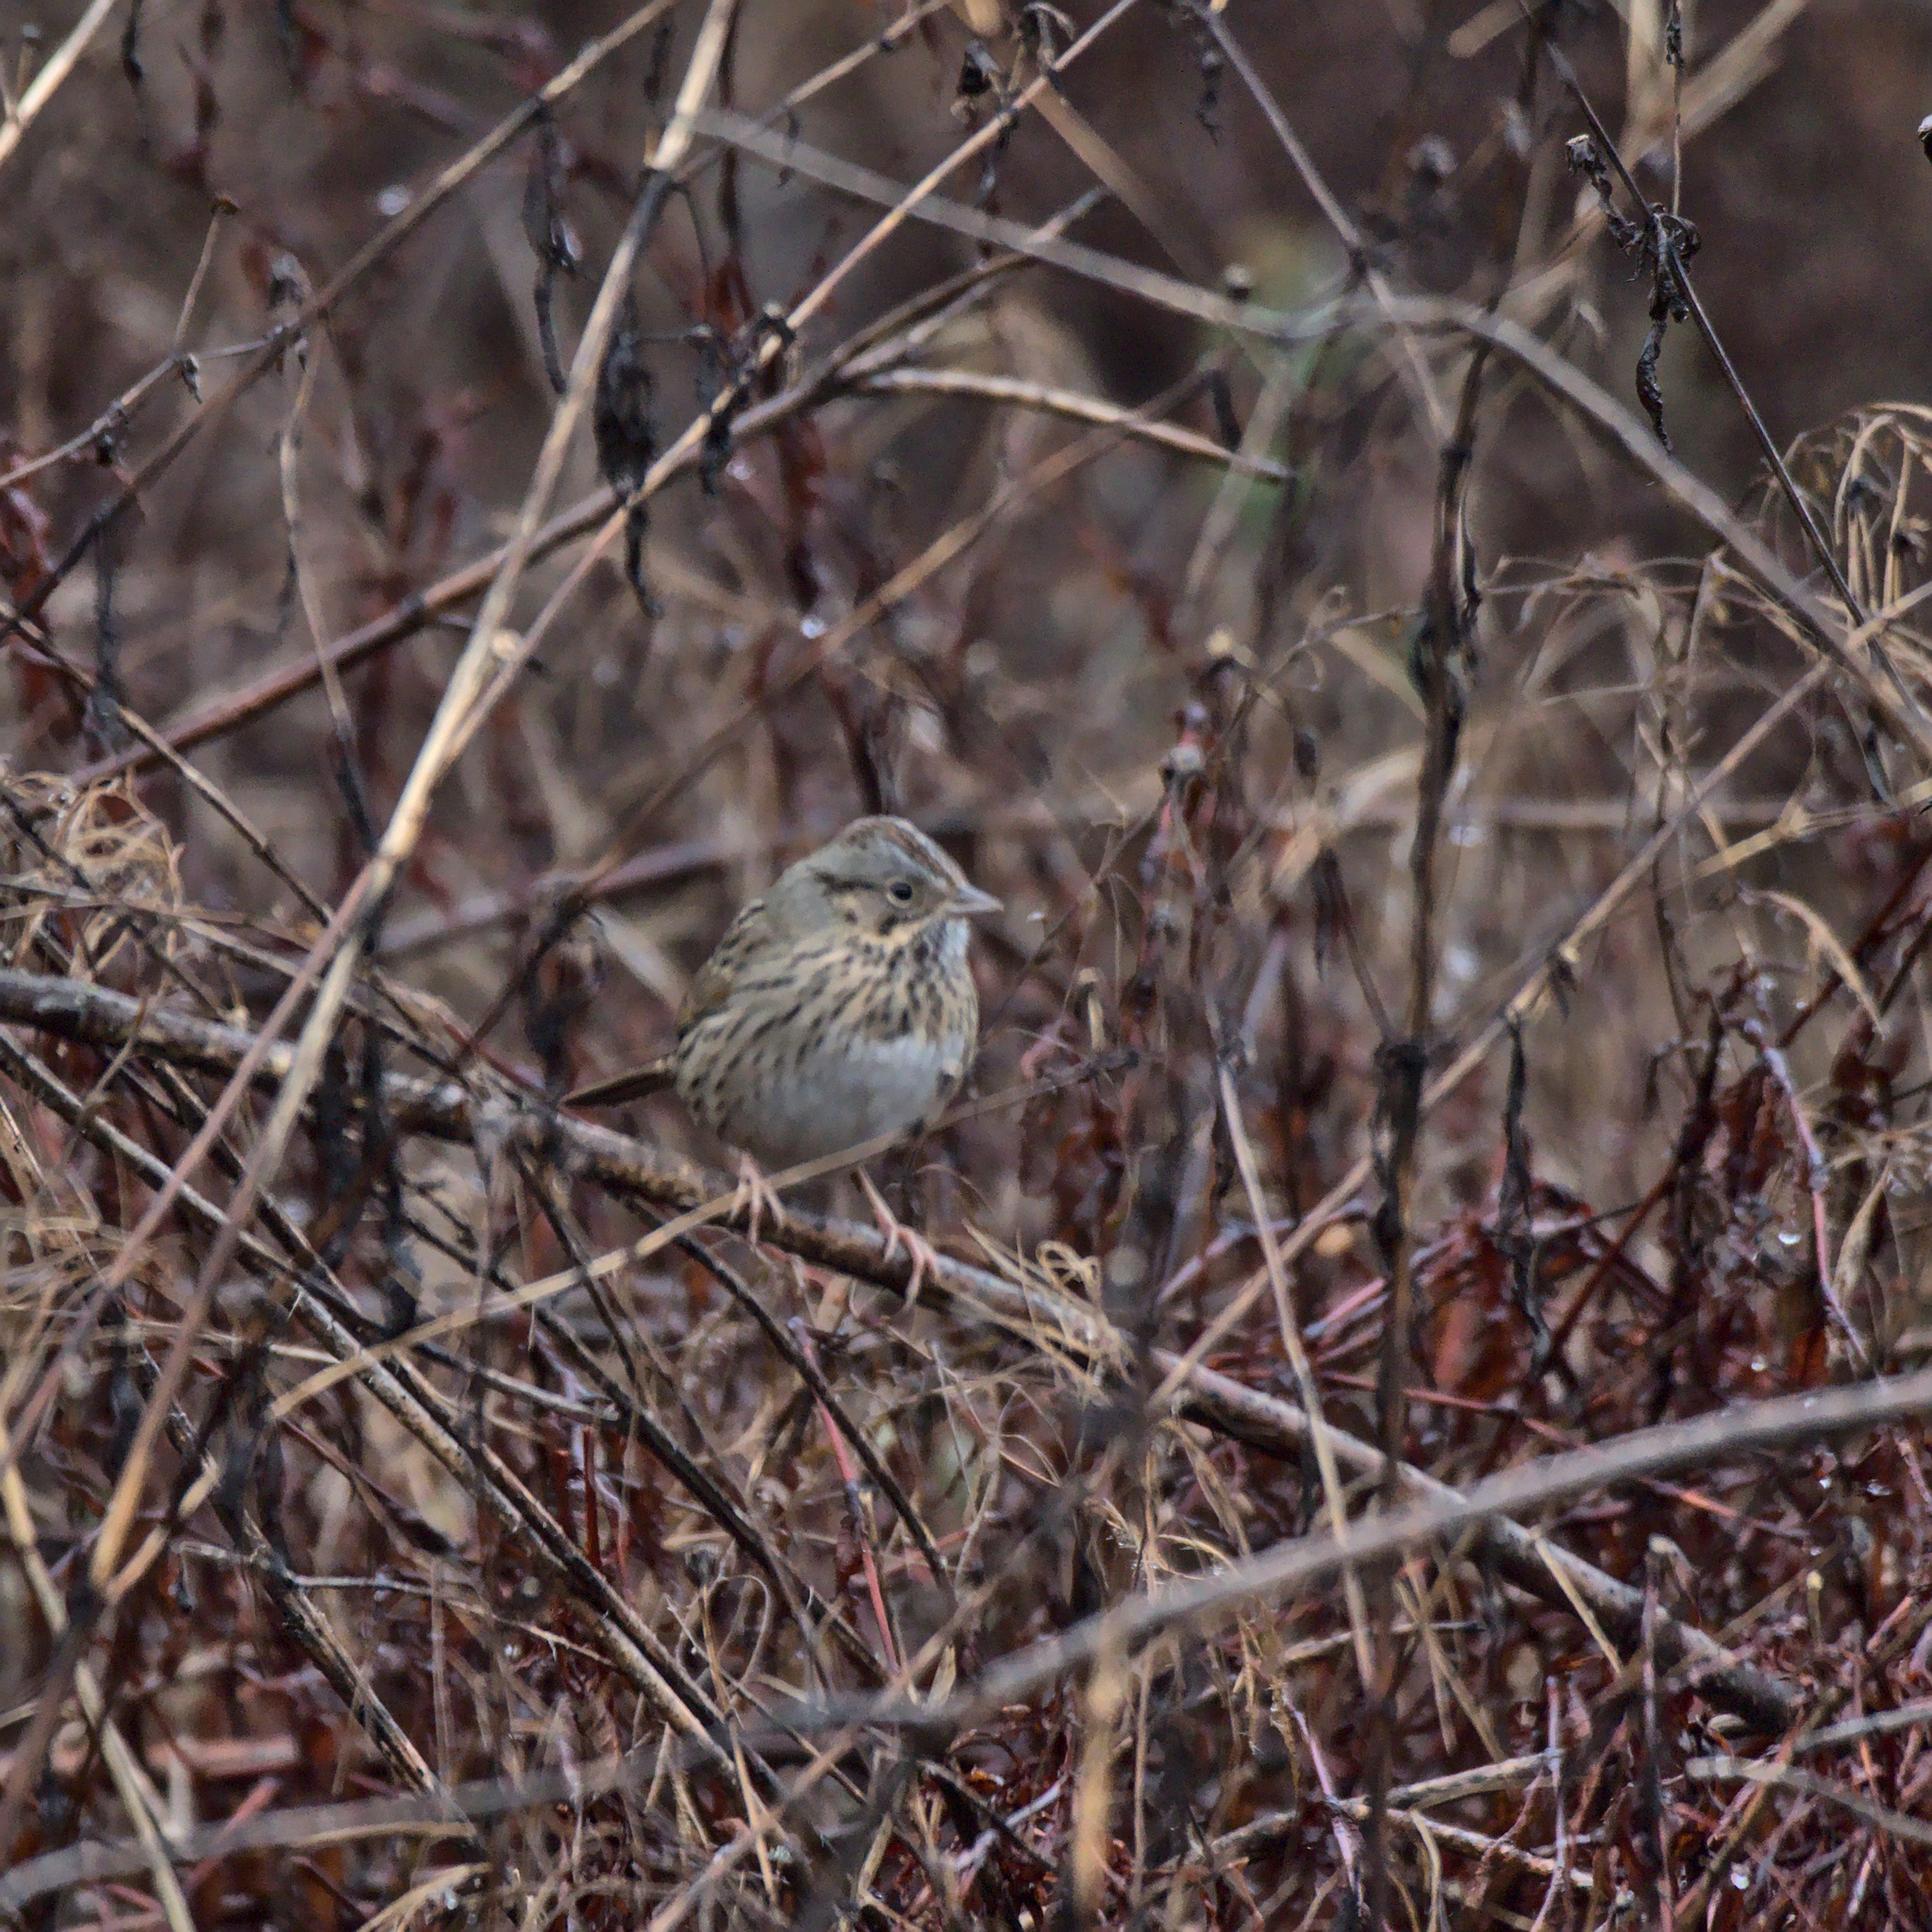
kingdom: Animalia
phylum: Chordata
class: Aves
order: Passeriformes
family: Passerellidae
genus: Melospiza
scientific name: Melospiza lincolnii
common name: Lincoln's sparrow
